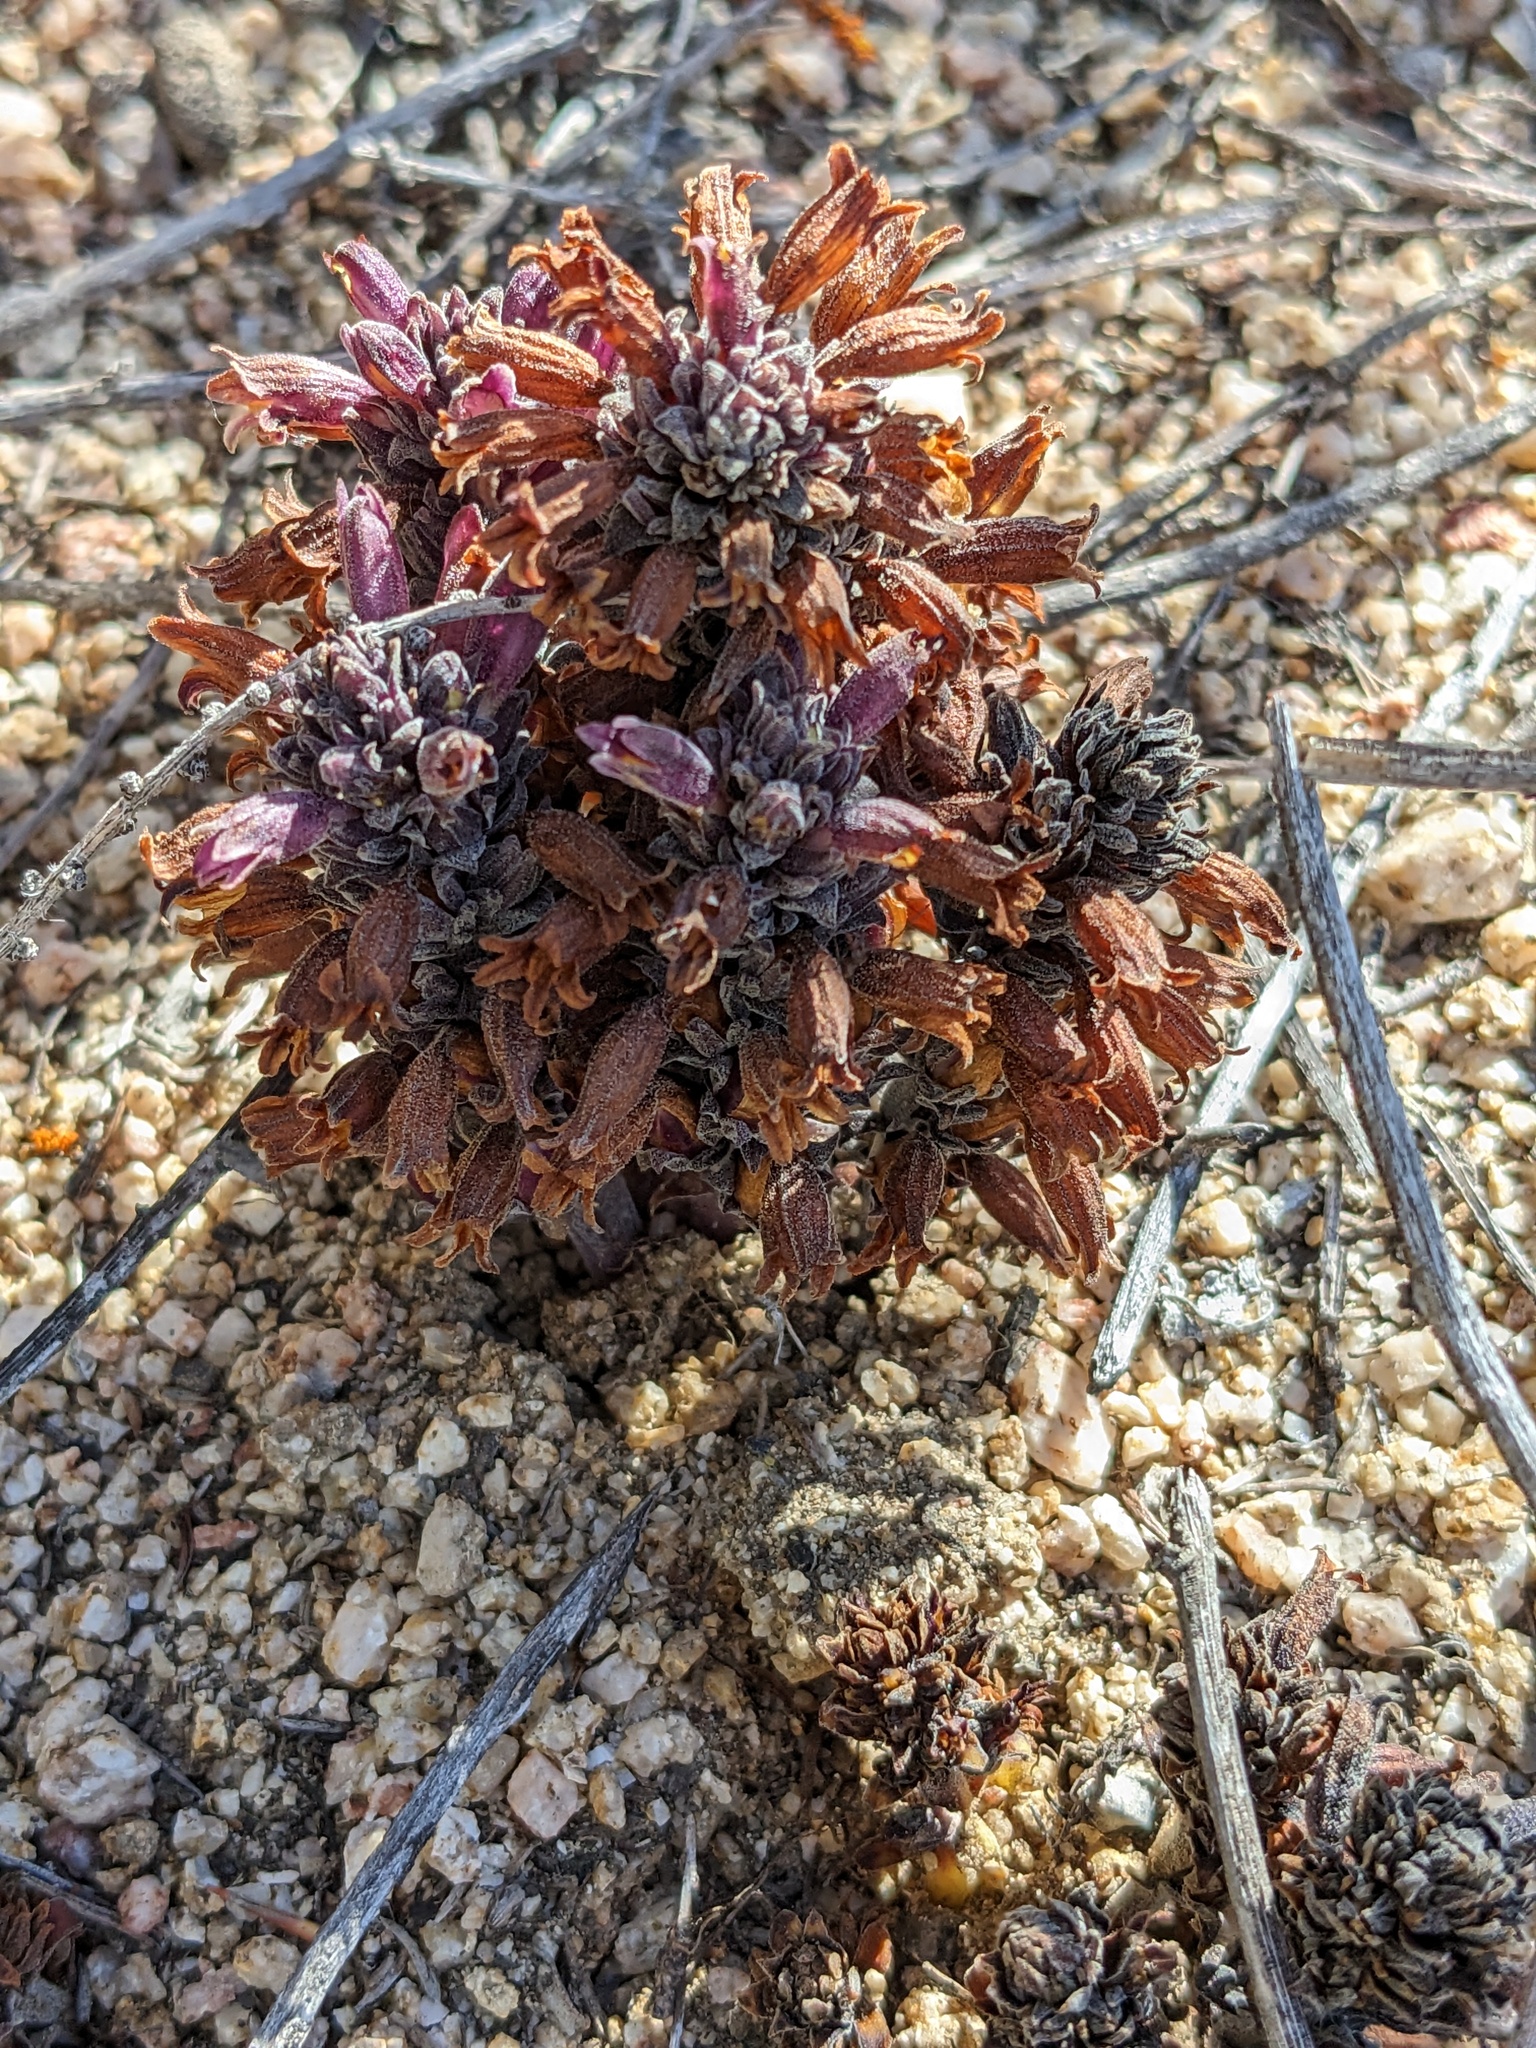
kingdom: Plantae
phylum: Tracheophyta
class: Magnoliopsida
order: Lamiales
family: Orobanchaceae
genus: Aphyllon
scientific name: Aphyllon tuberosum
